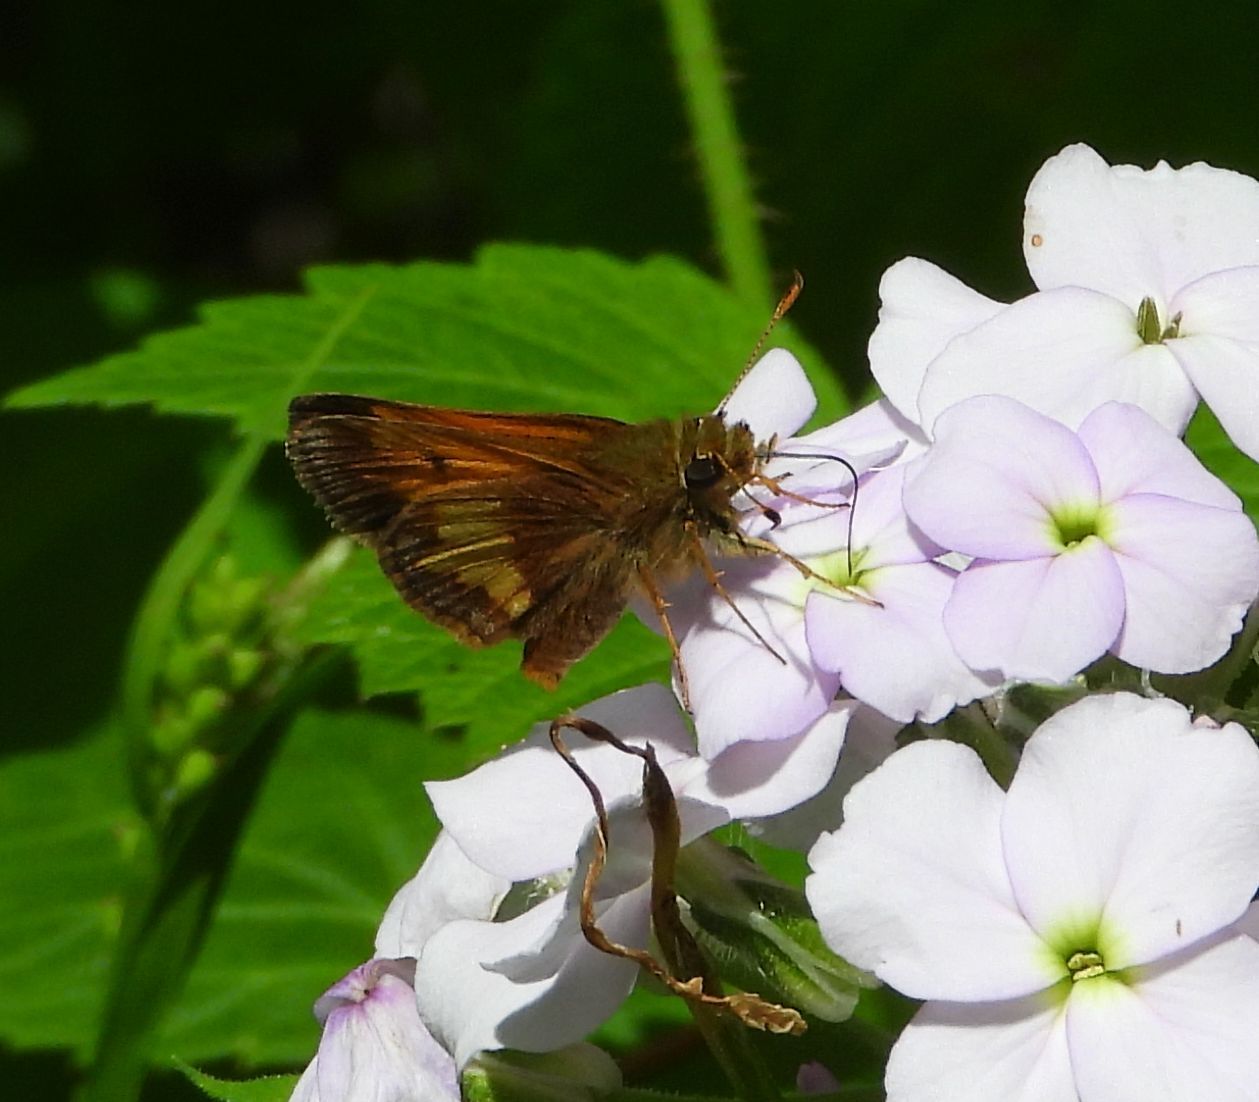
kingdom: Animalia
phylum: Arthropoda
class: Insecta
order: Lepidoptera
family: Hesperiidae
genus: Lon
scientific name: Lon hobomok
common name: Hobomok skipper
